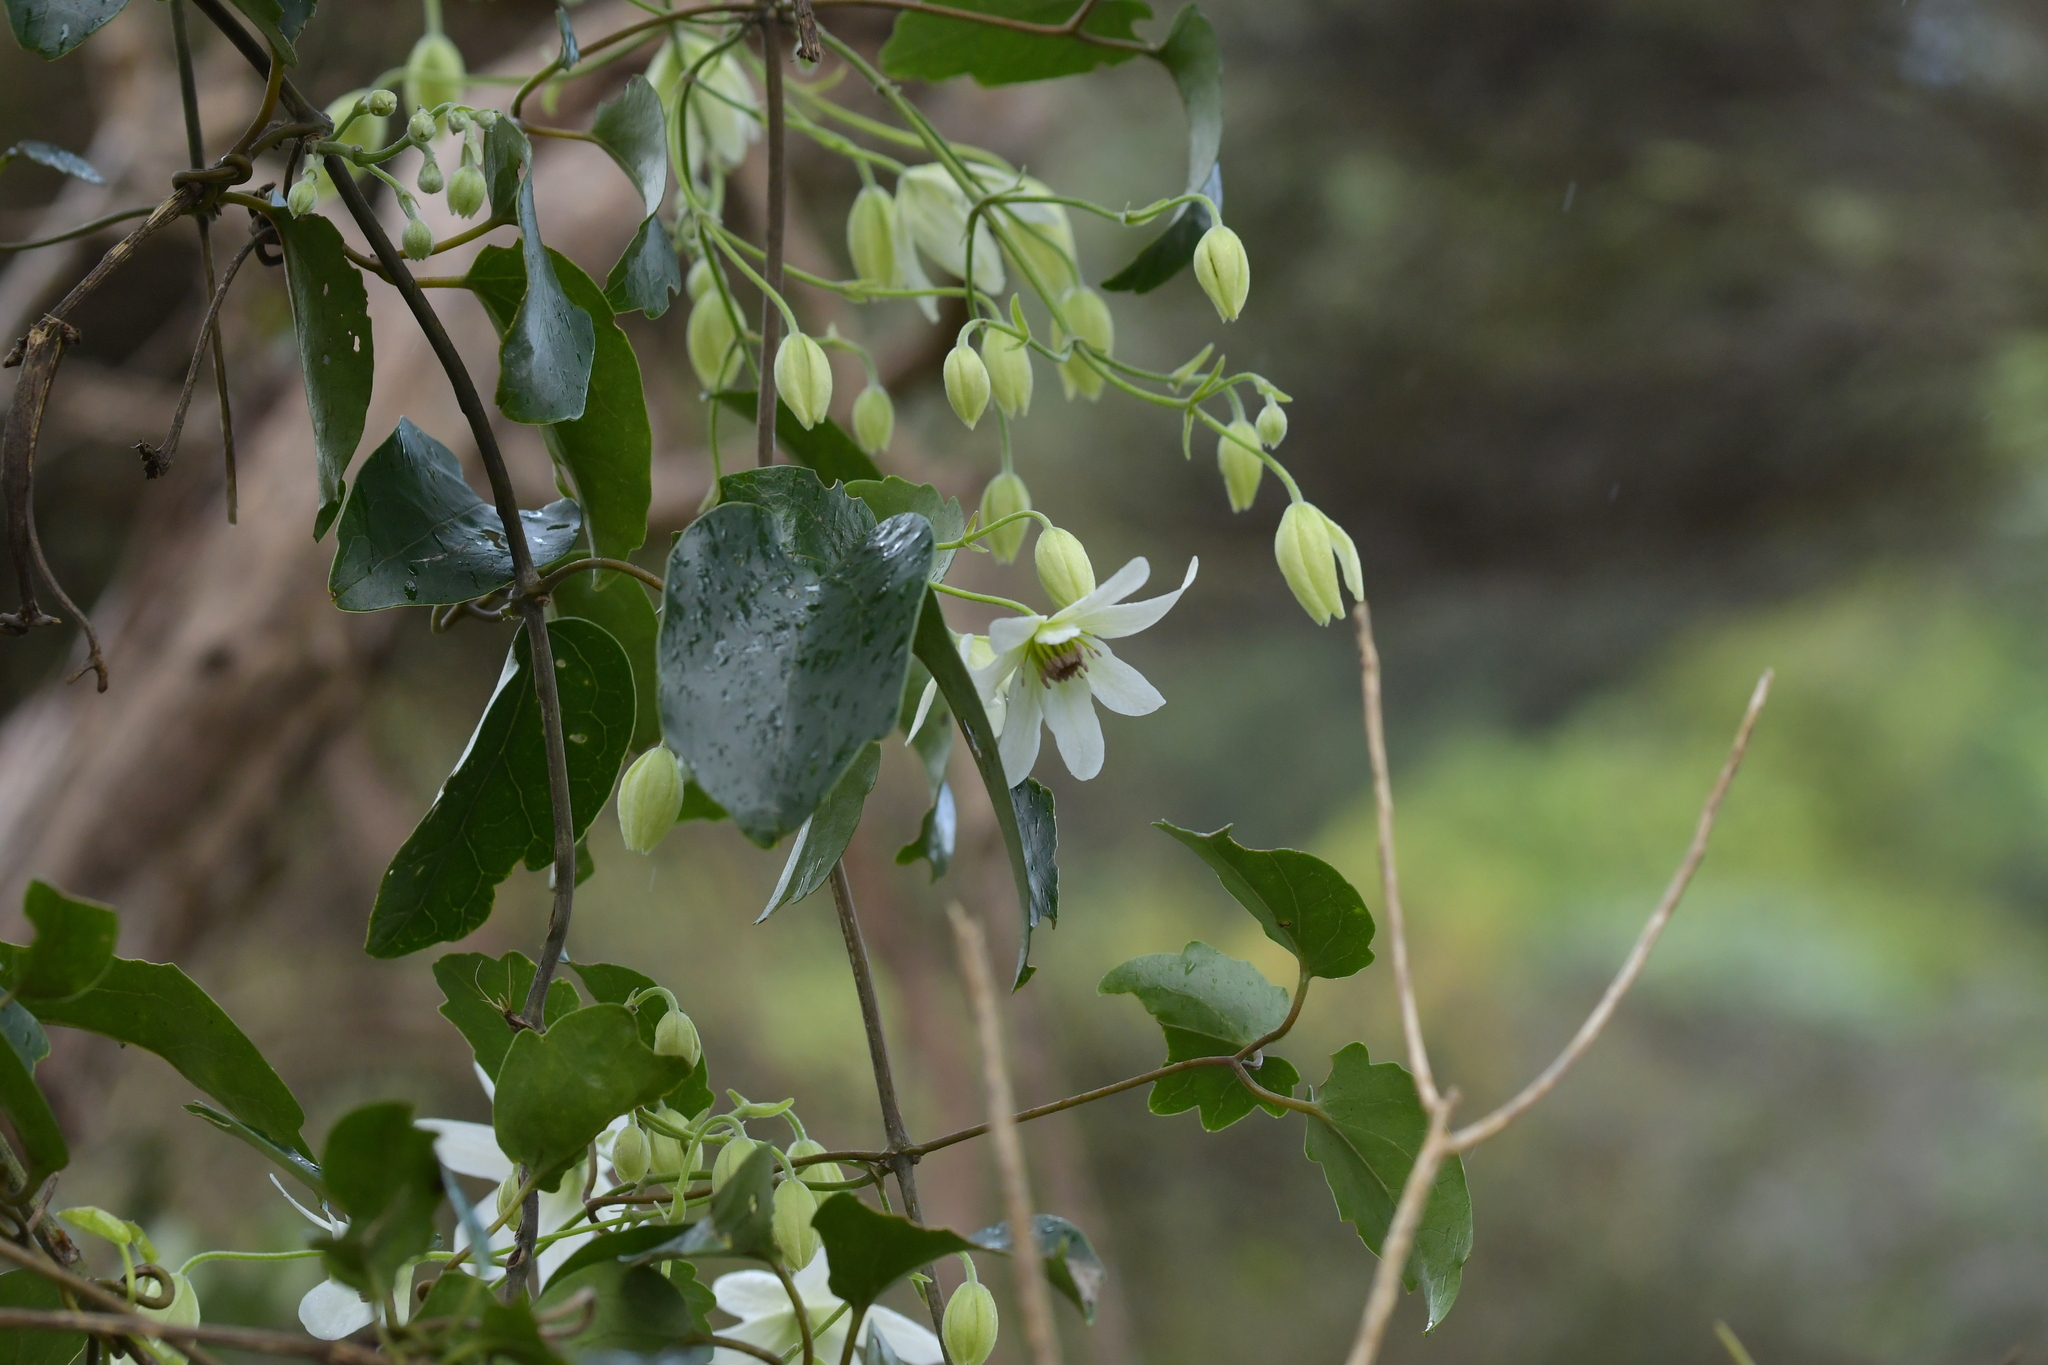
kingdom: Plantae
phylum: Tracheophyta
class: Magnoliopsida
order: Ranunculales
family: Ranunculaceae
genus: Clematis
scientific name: Clematis paniculata
